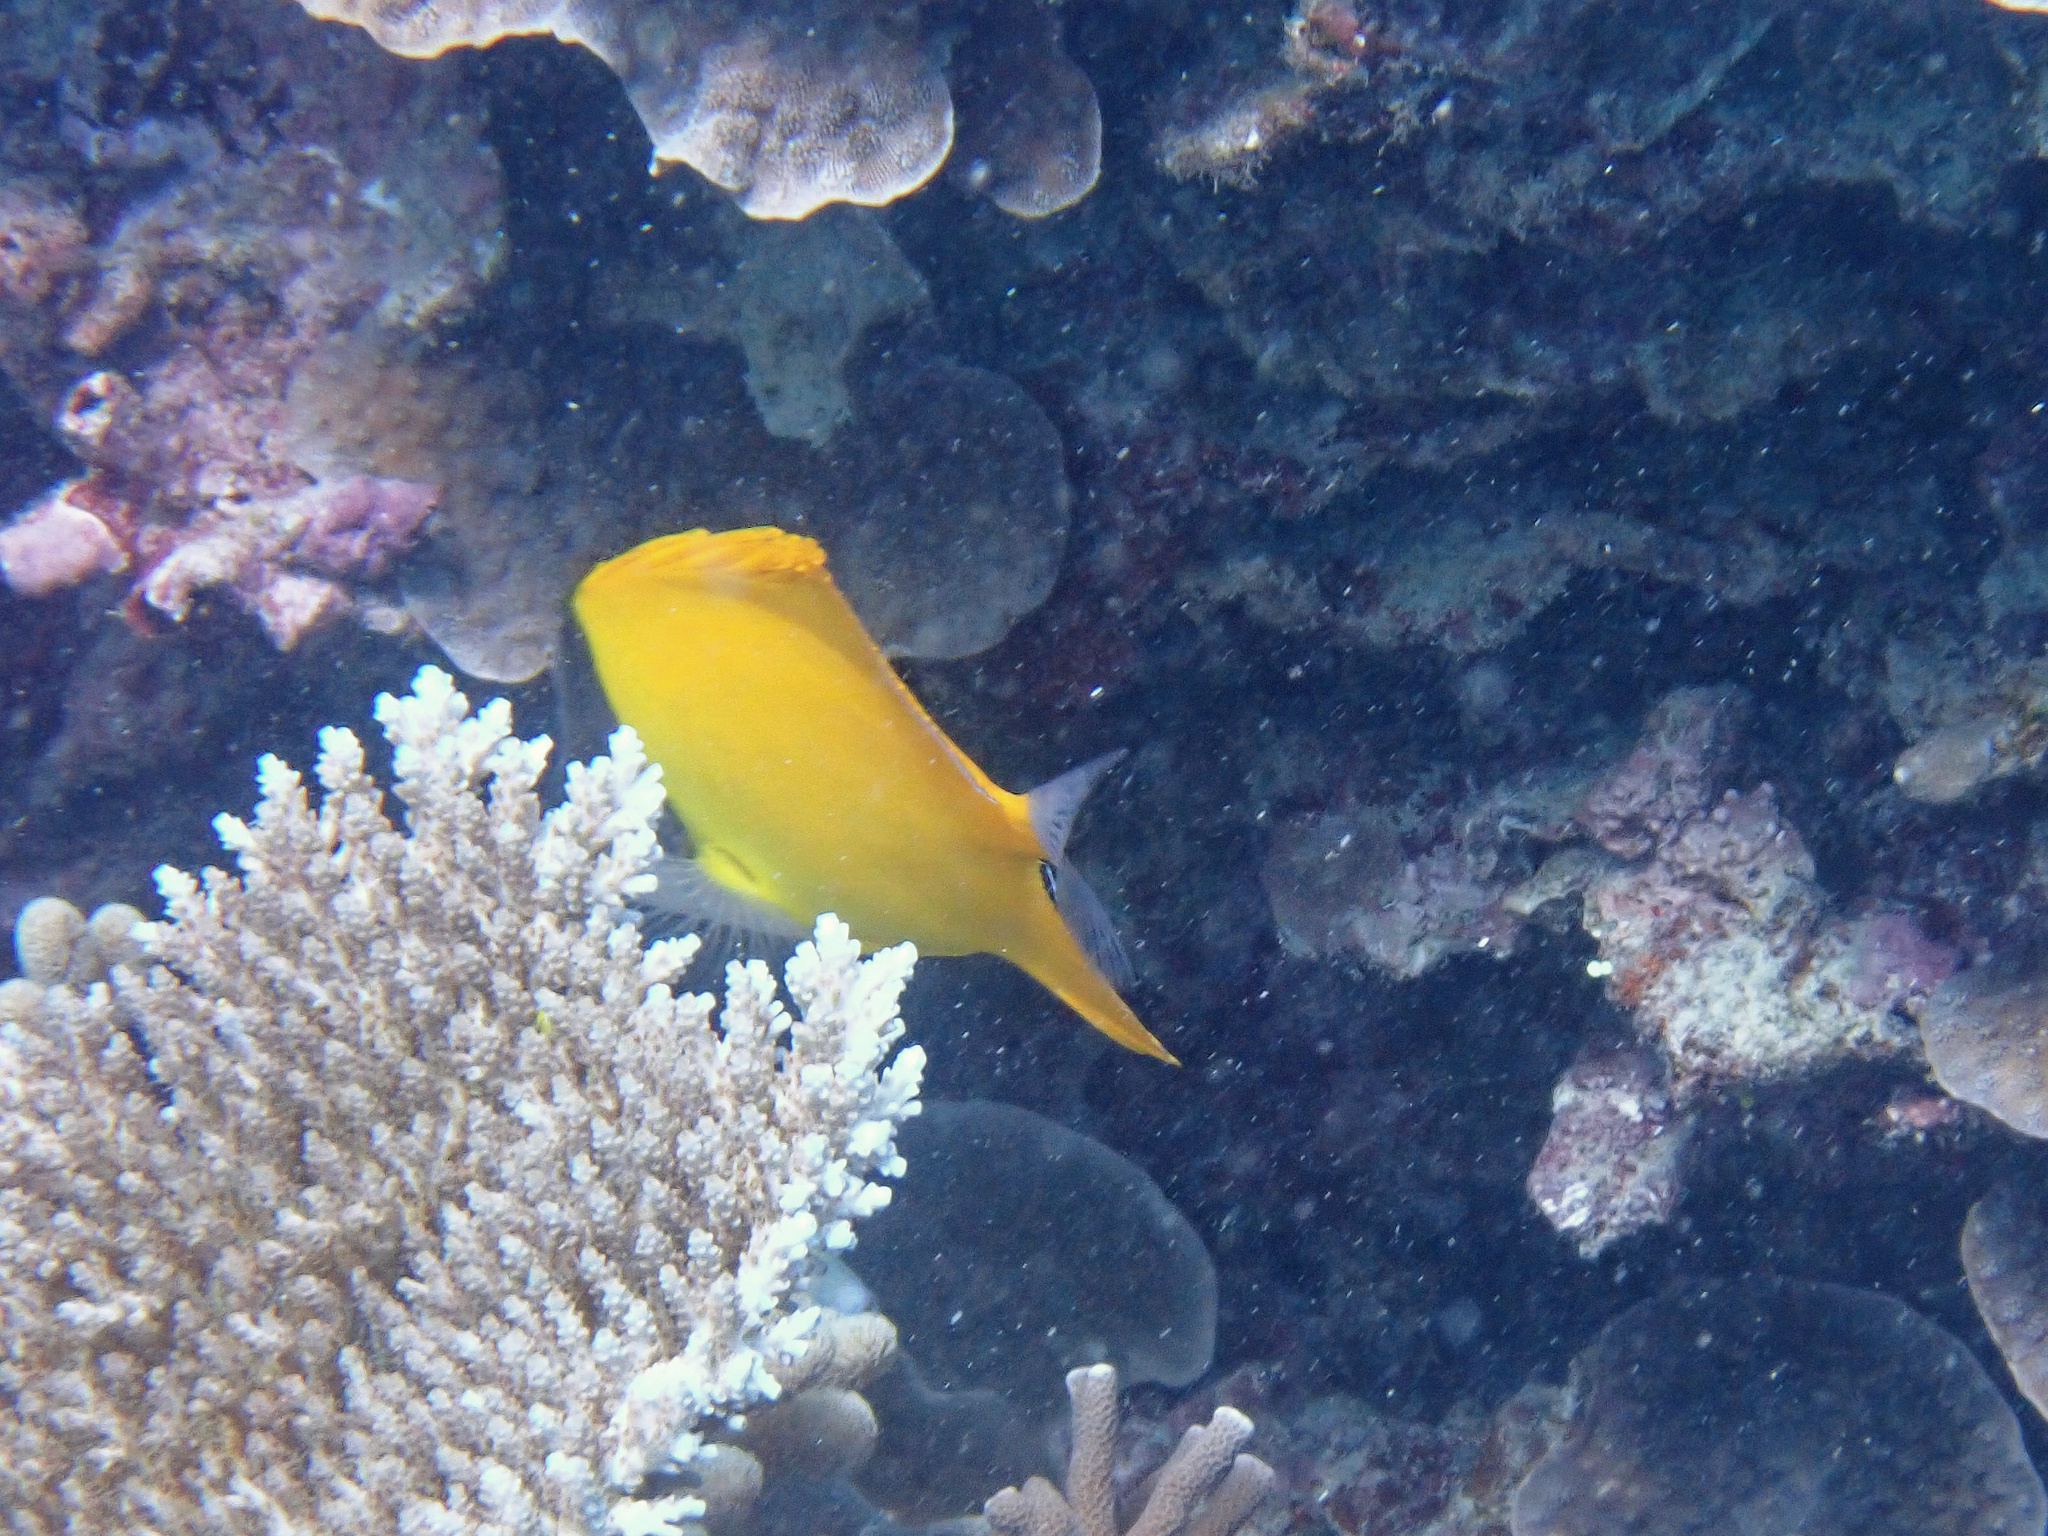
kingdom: Animalia
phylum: Chordata
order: Perciformes
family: Chaetodontidae
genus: Forcipiger
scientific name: Forcipiger
